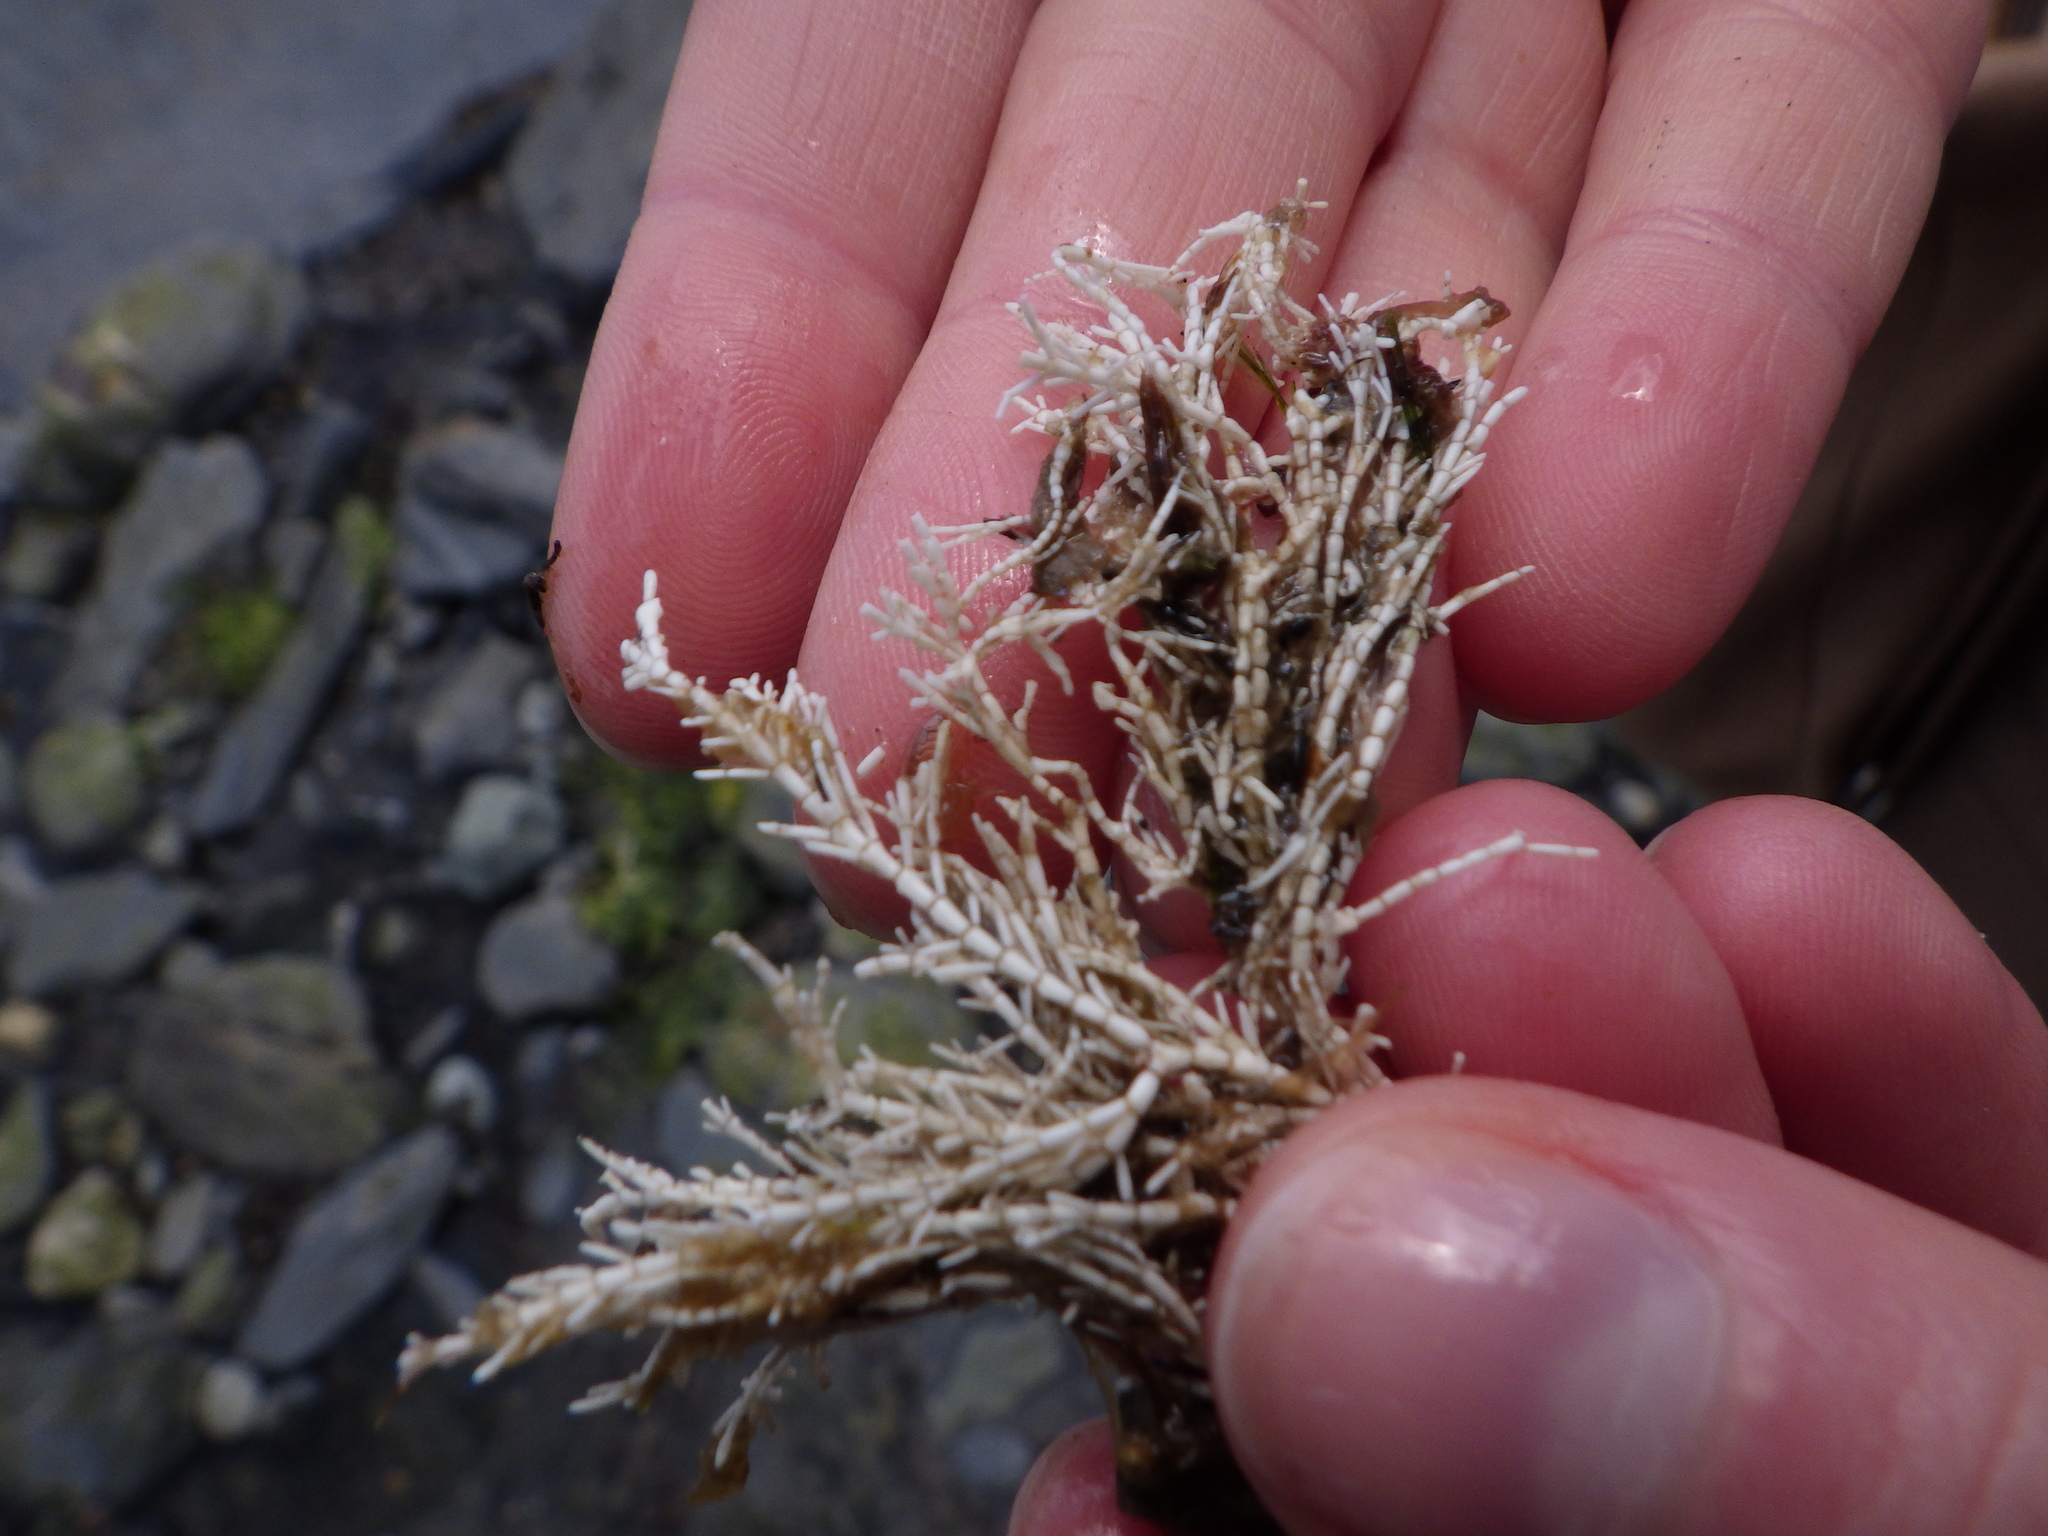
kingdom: Plantae
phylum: Rhodophyta
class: Florideophyceae
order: Corallinales
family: Corallinaceae
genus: Corallina
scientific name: Corallina officinalis
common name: Coral weed
